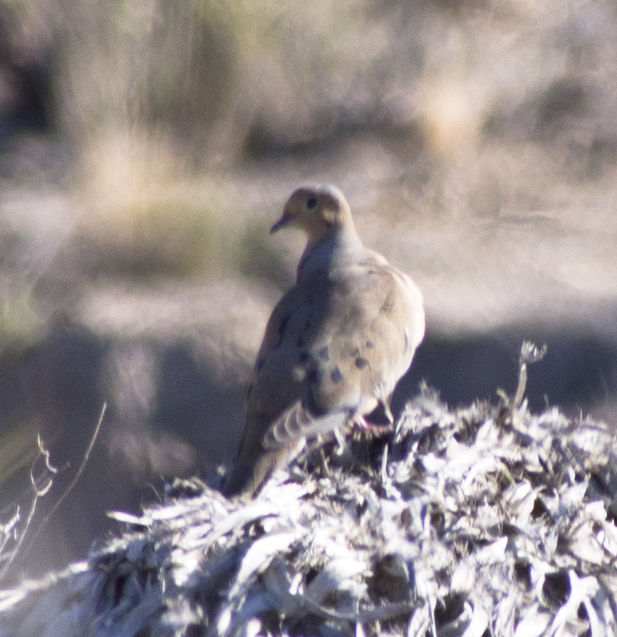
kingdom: Animalia
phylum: Chordata
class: Aves
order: Columbiformes
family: Columbidae
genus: Zenaida
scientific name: Zenaida macroura
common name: Mourning dove
